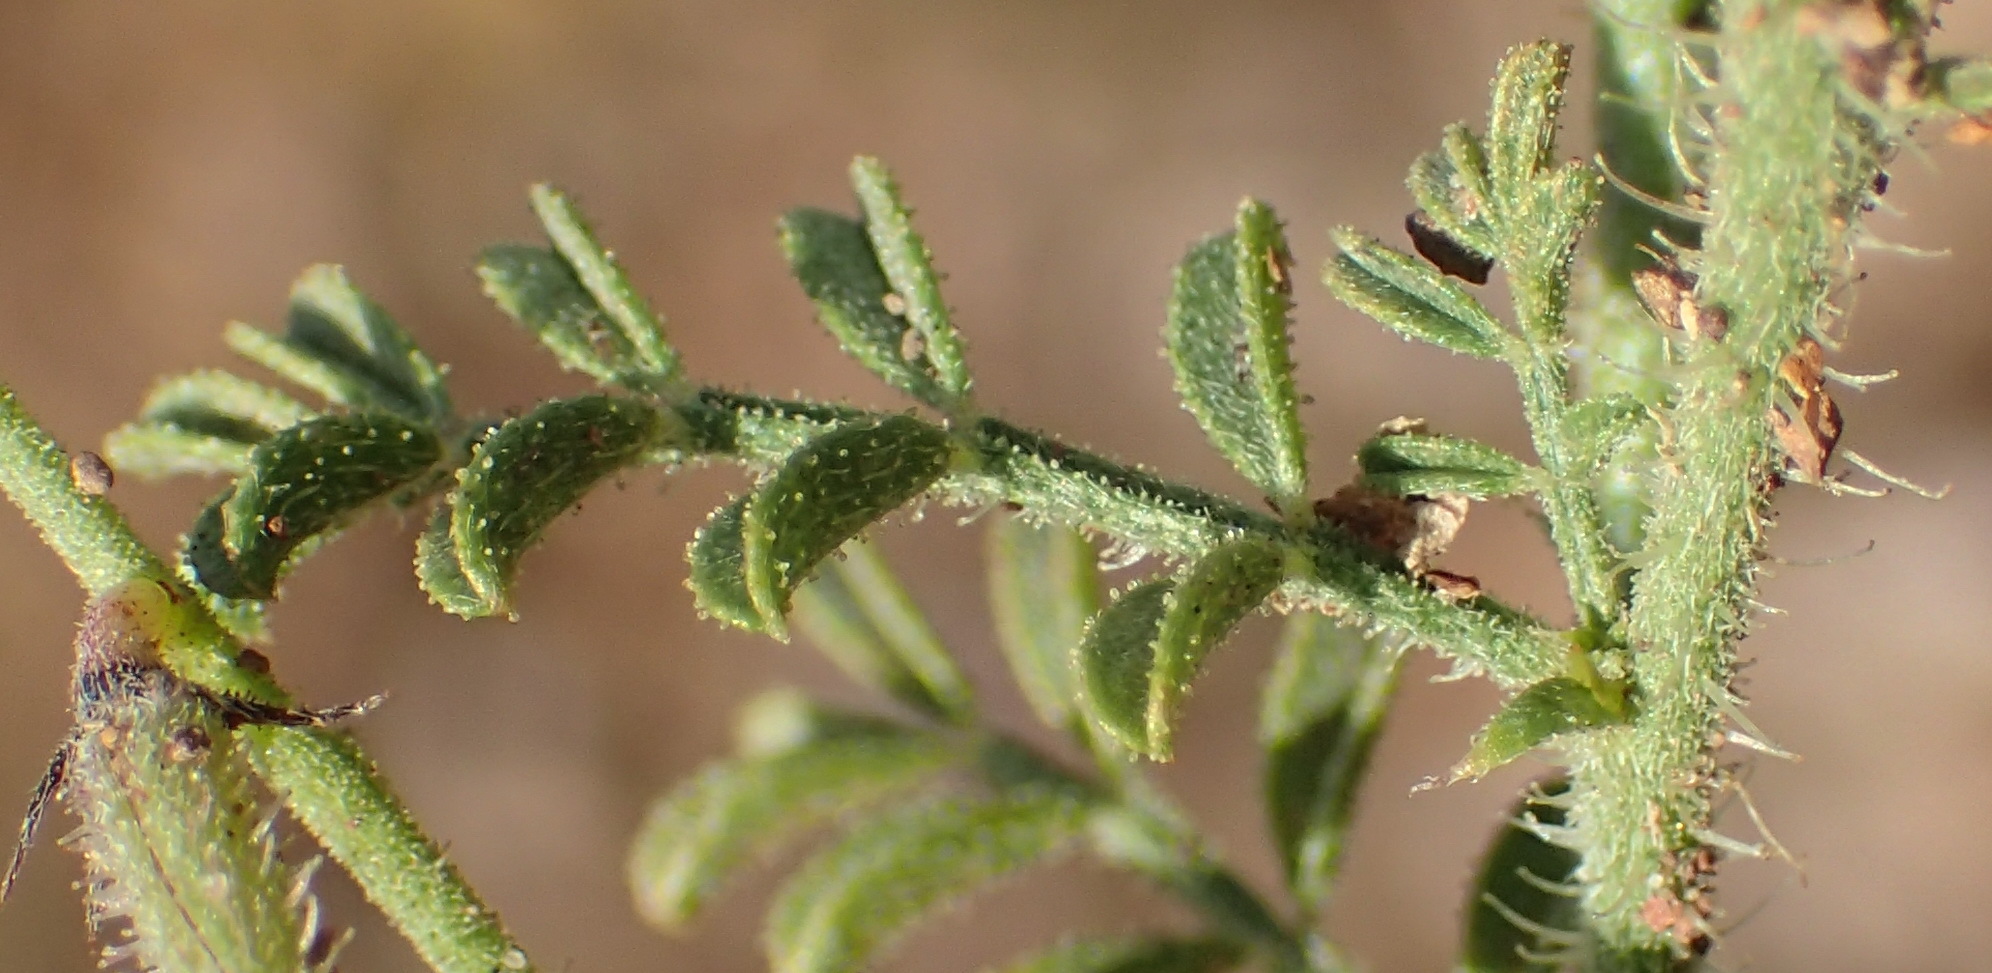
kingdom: Plantae
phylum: Tracheophyta
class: Magnoliopsida
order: Fabales
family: Fabaceae
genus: Indigofera
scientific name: Indigofera heterotricha
